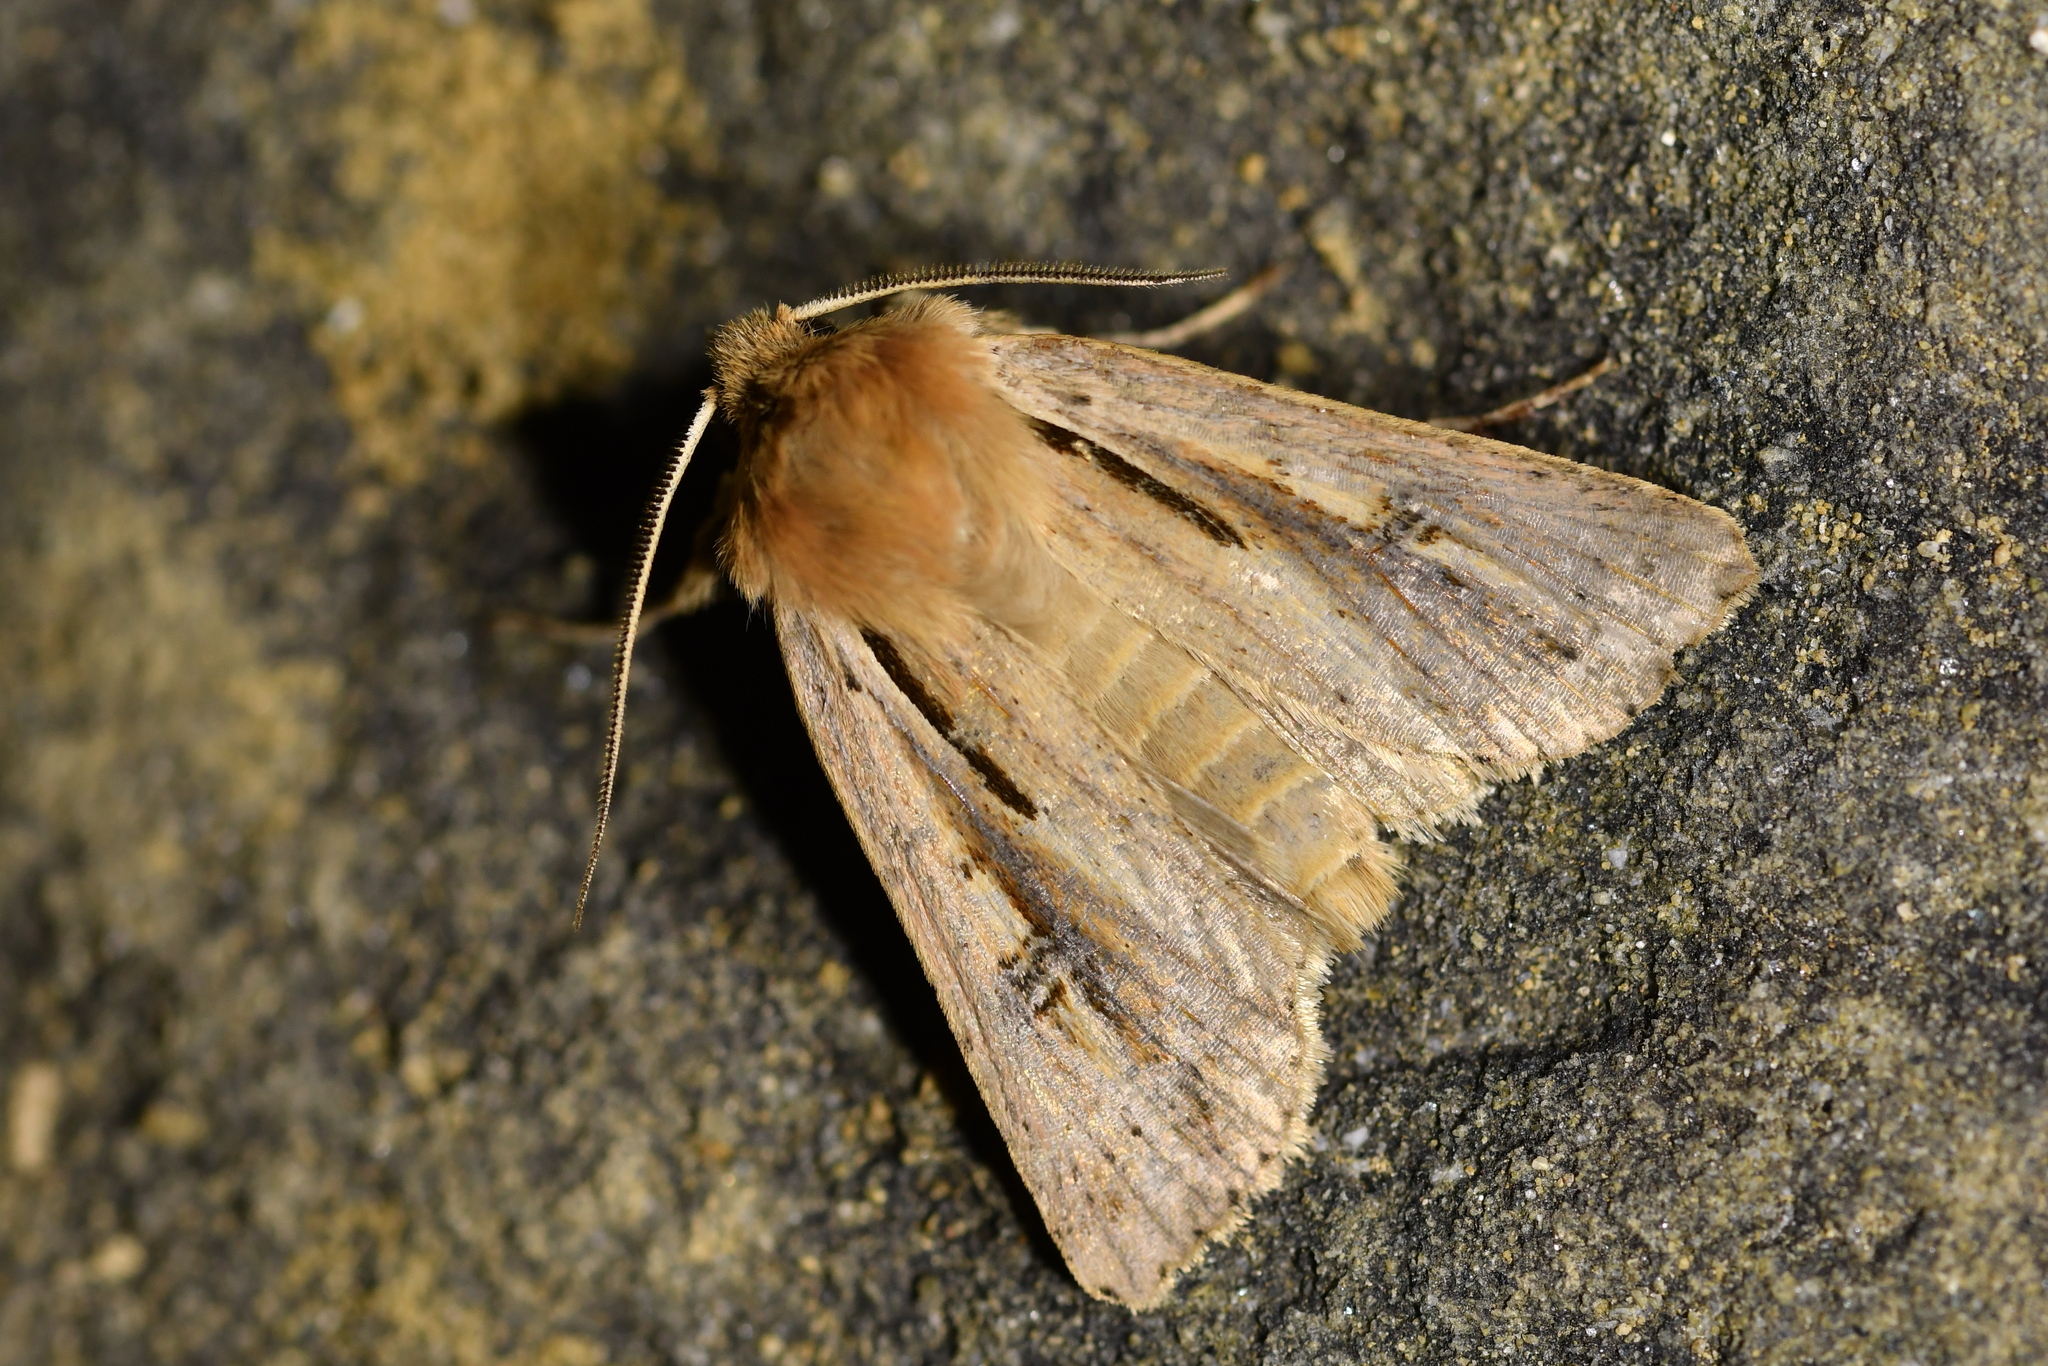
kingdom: Animalia
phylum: Arthropoda
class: Insecta
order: Lepidoptera
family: Noctuidae
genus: Ichneutica
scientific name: Ichneutica propria
